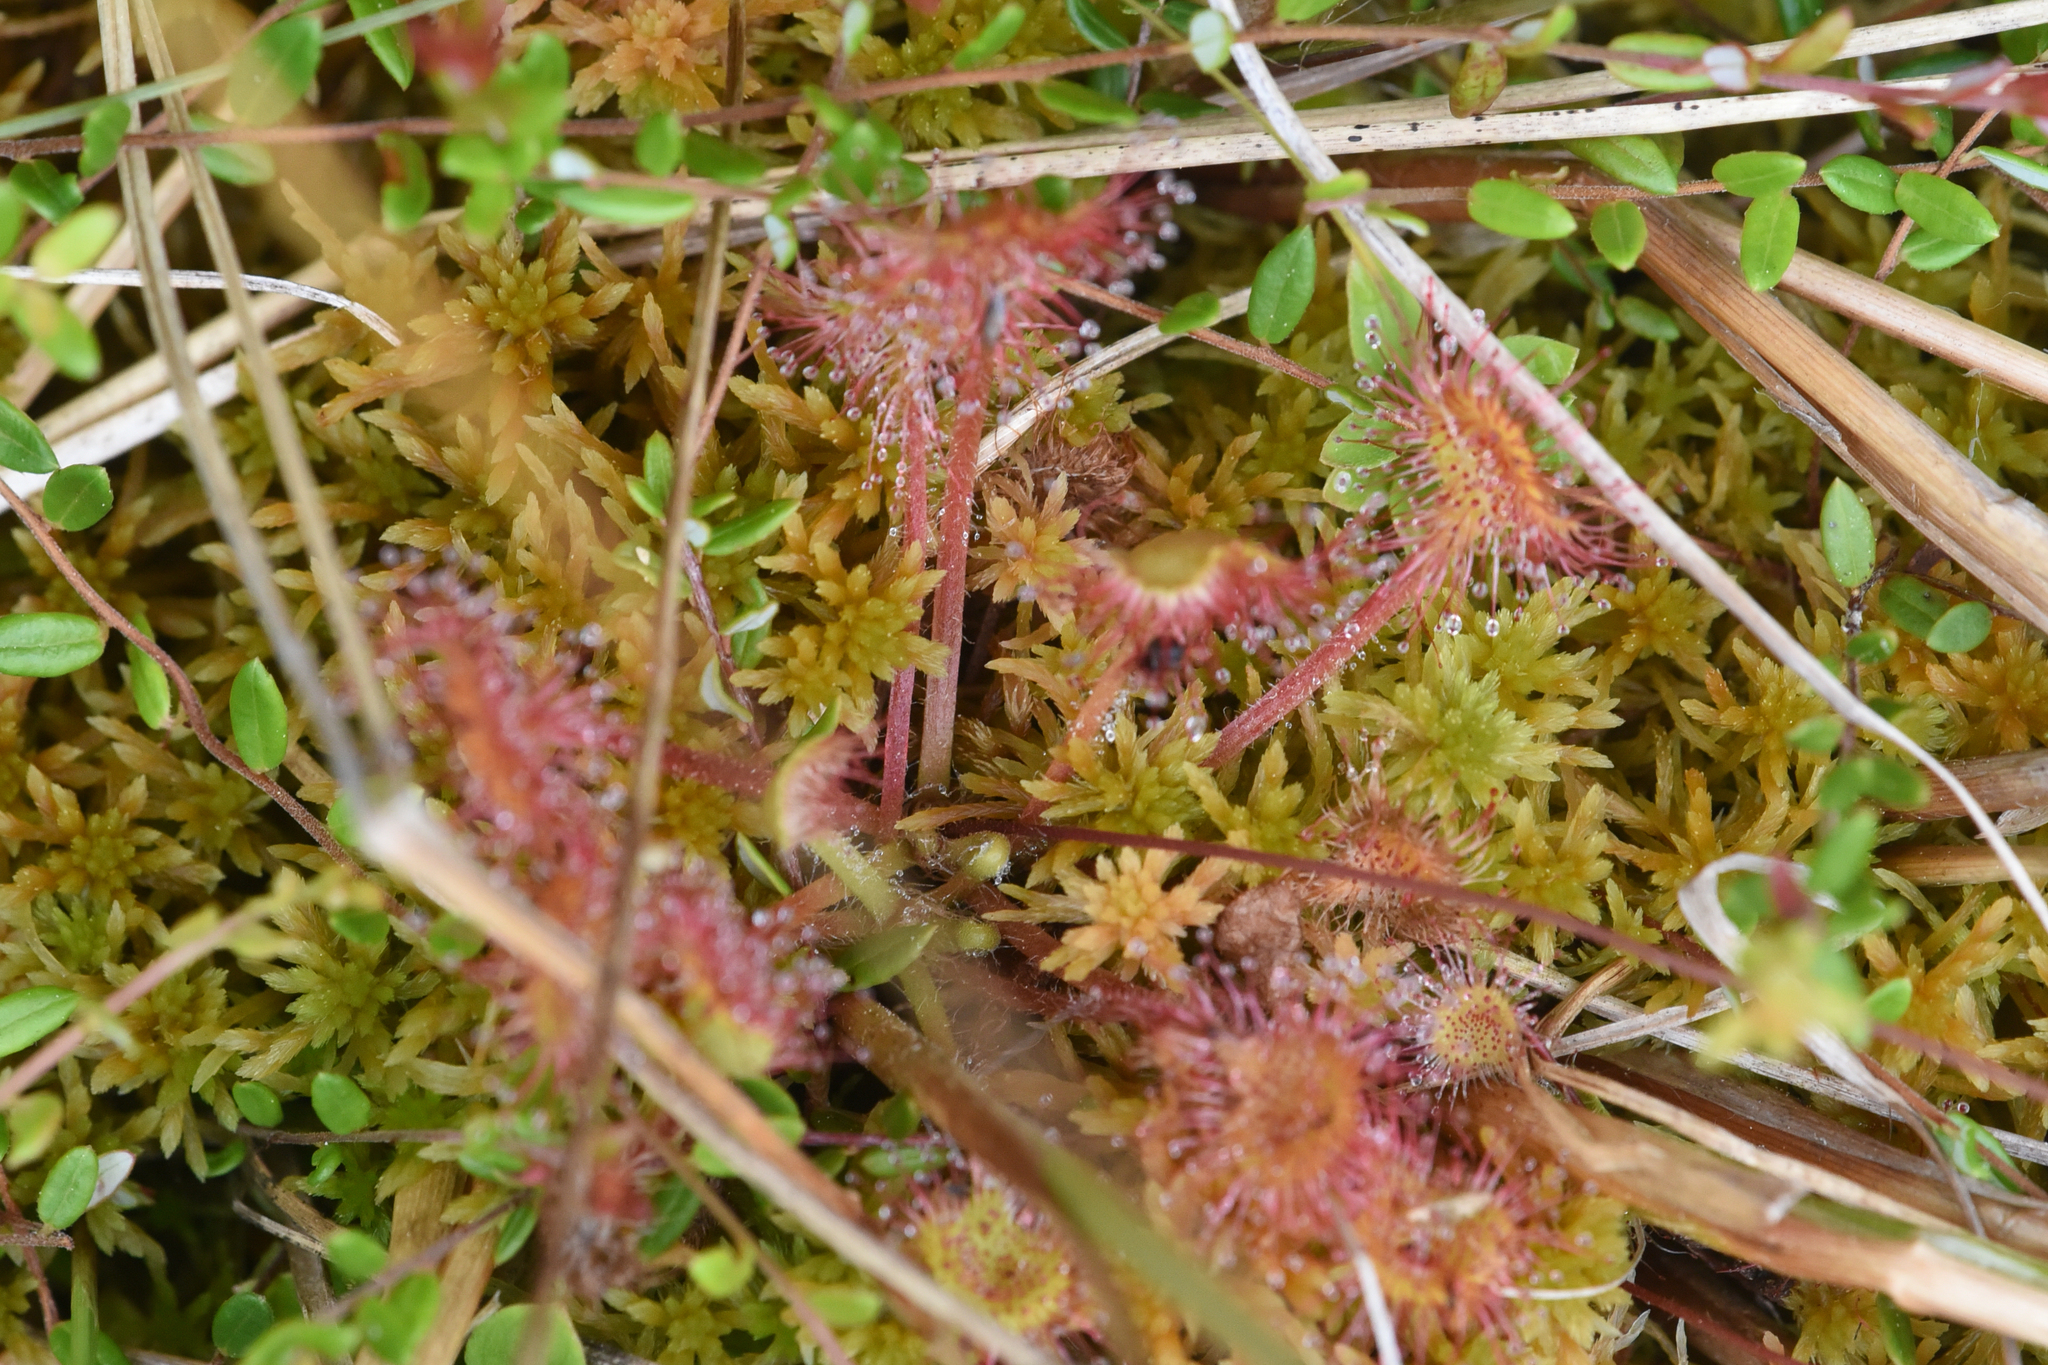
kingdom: Plantae
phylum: Tracheophyta
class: Magnoliopsida
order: Caryophyllales
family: Droseraceae
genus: Drosera
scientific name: Drosera rotundifolia
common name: Round-leaved sundew
